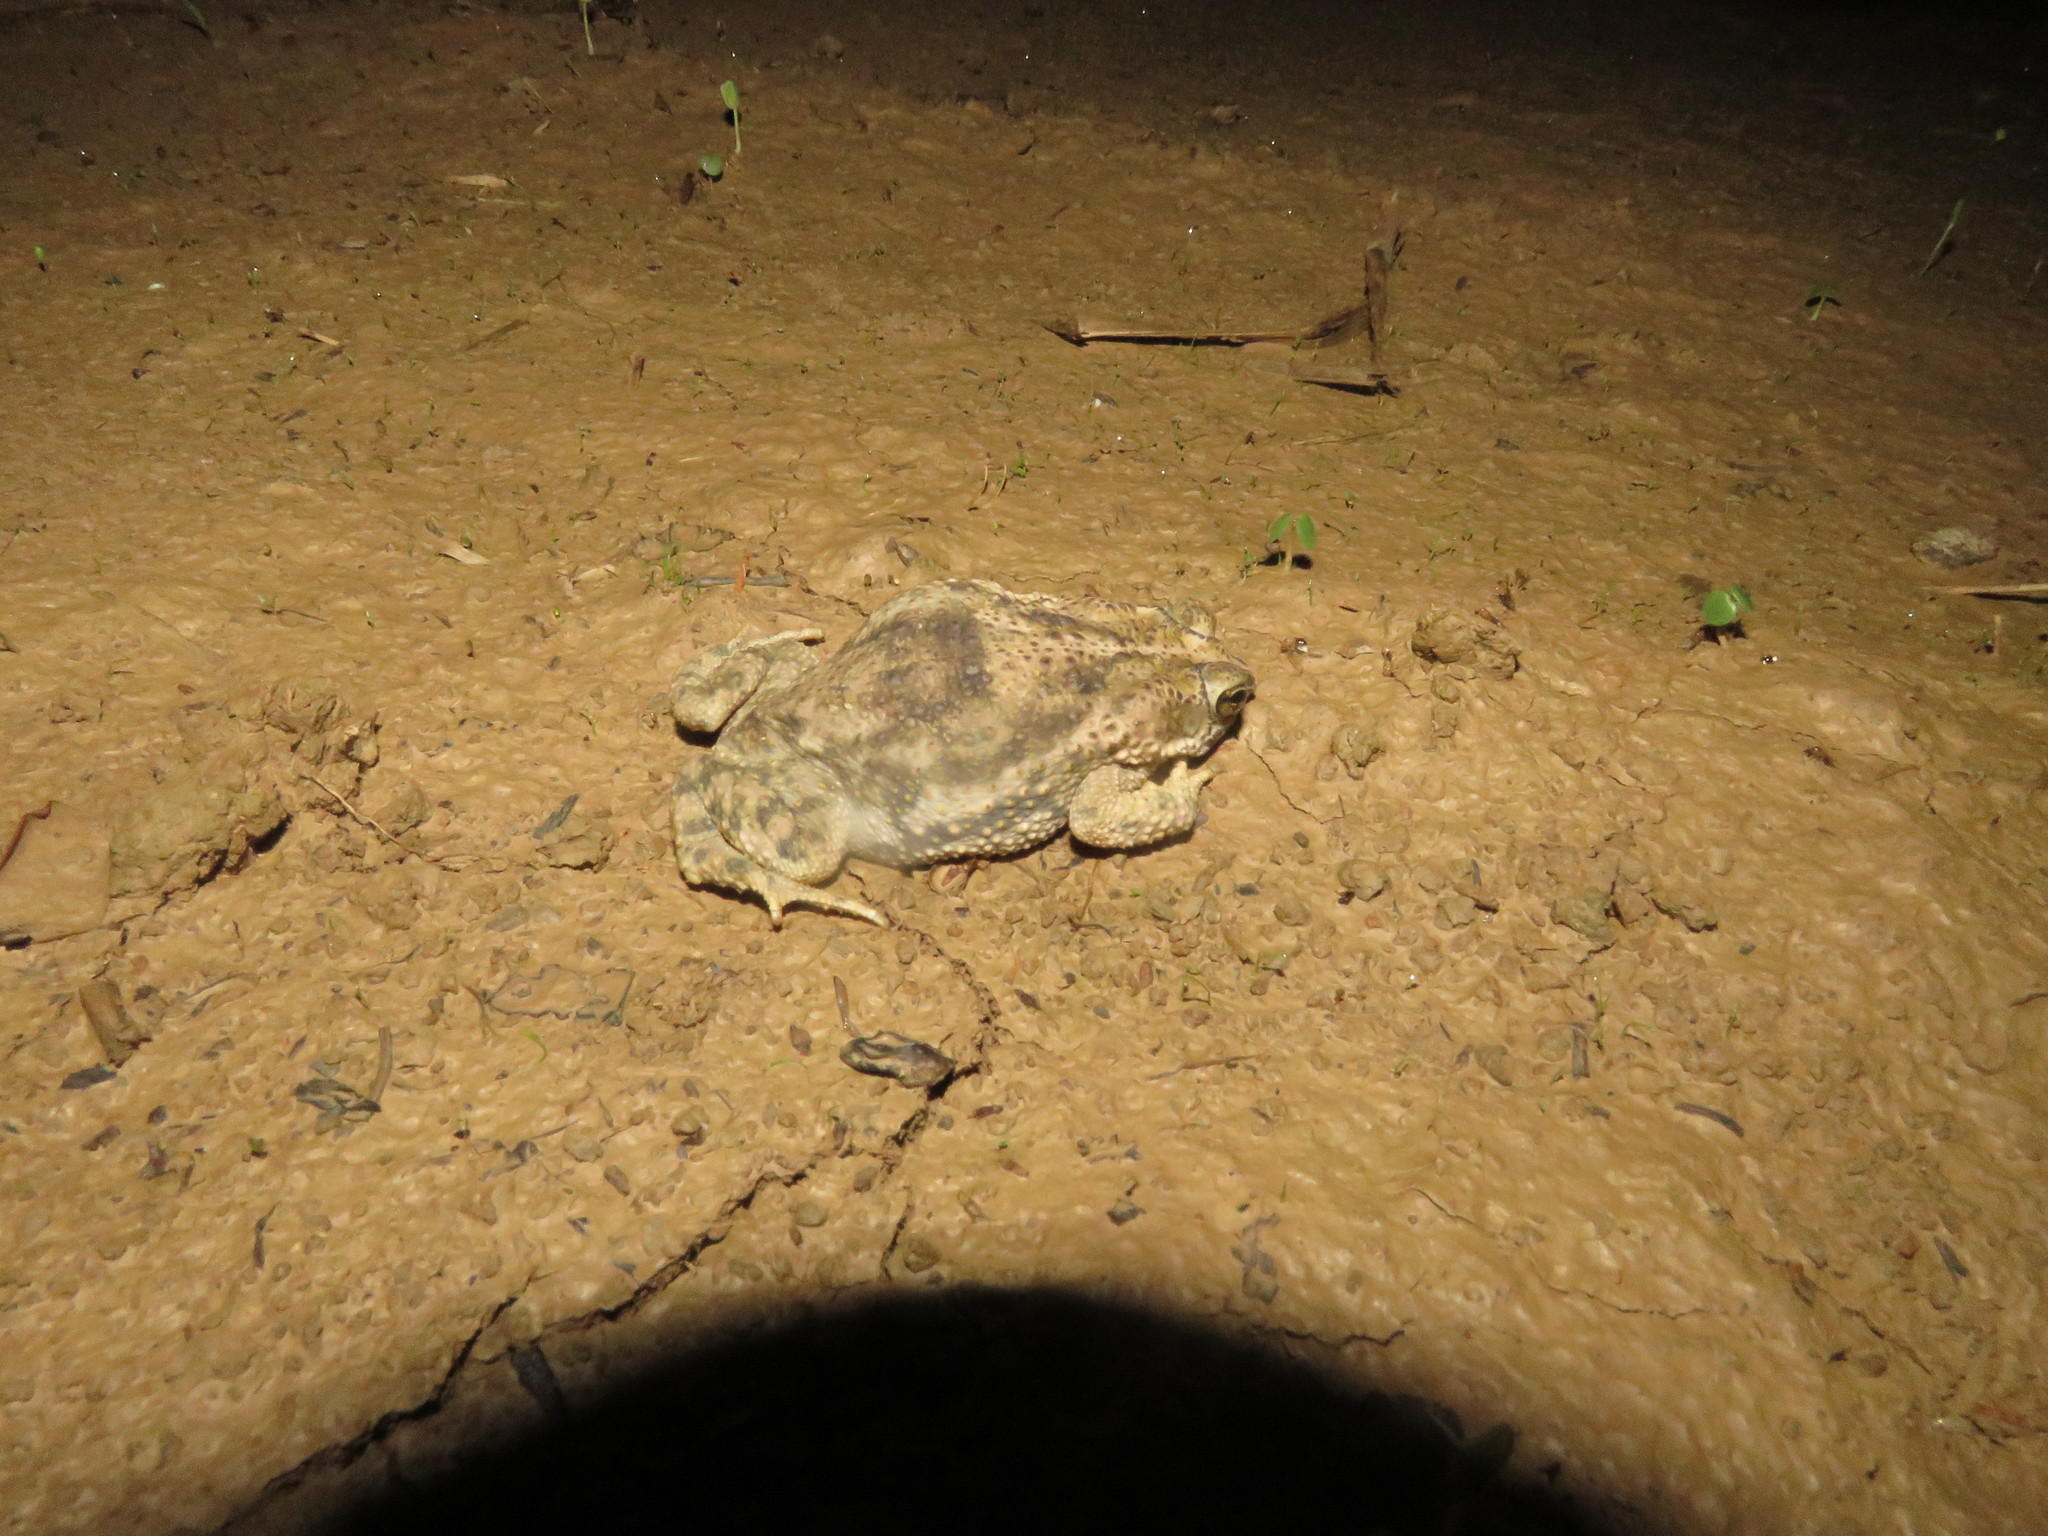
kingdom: Animalia
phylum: Chordata
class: Amphibia
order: Anura
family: Bufonidae
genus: Rhinella
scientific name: Rhinella major
